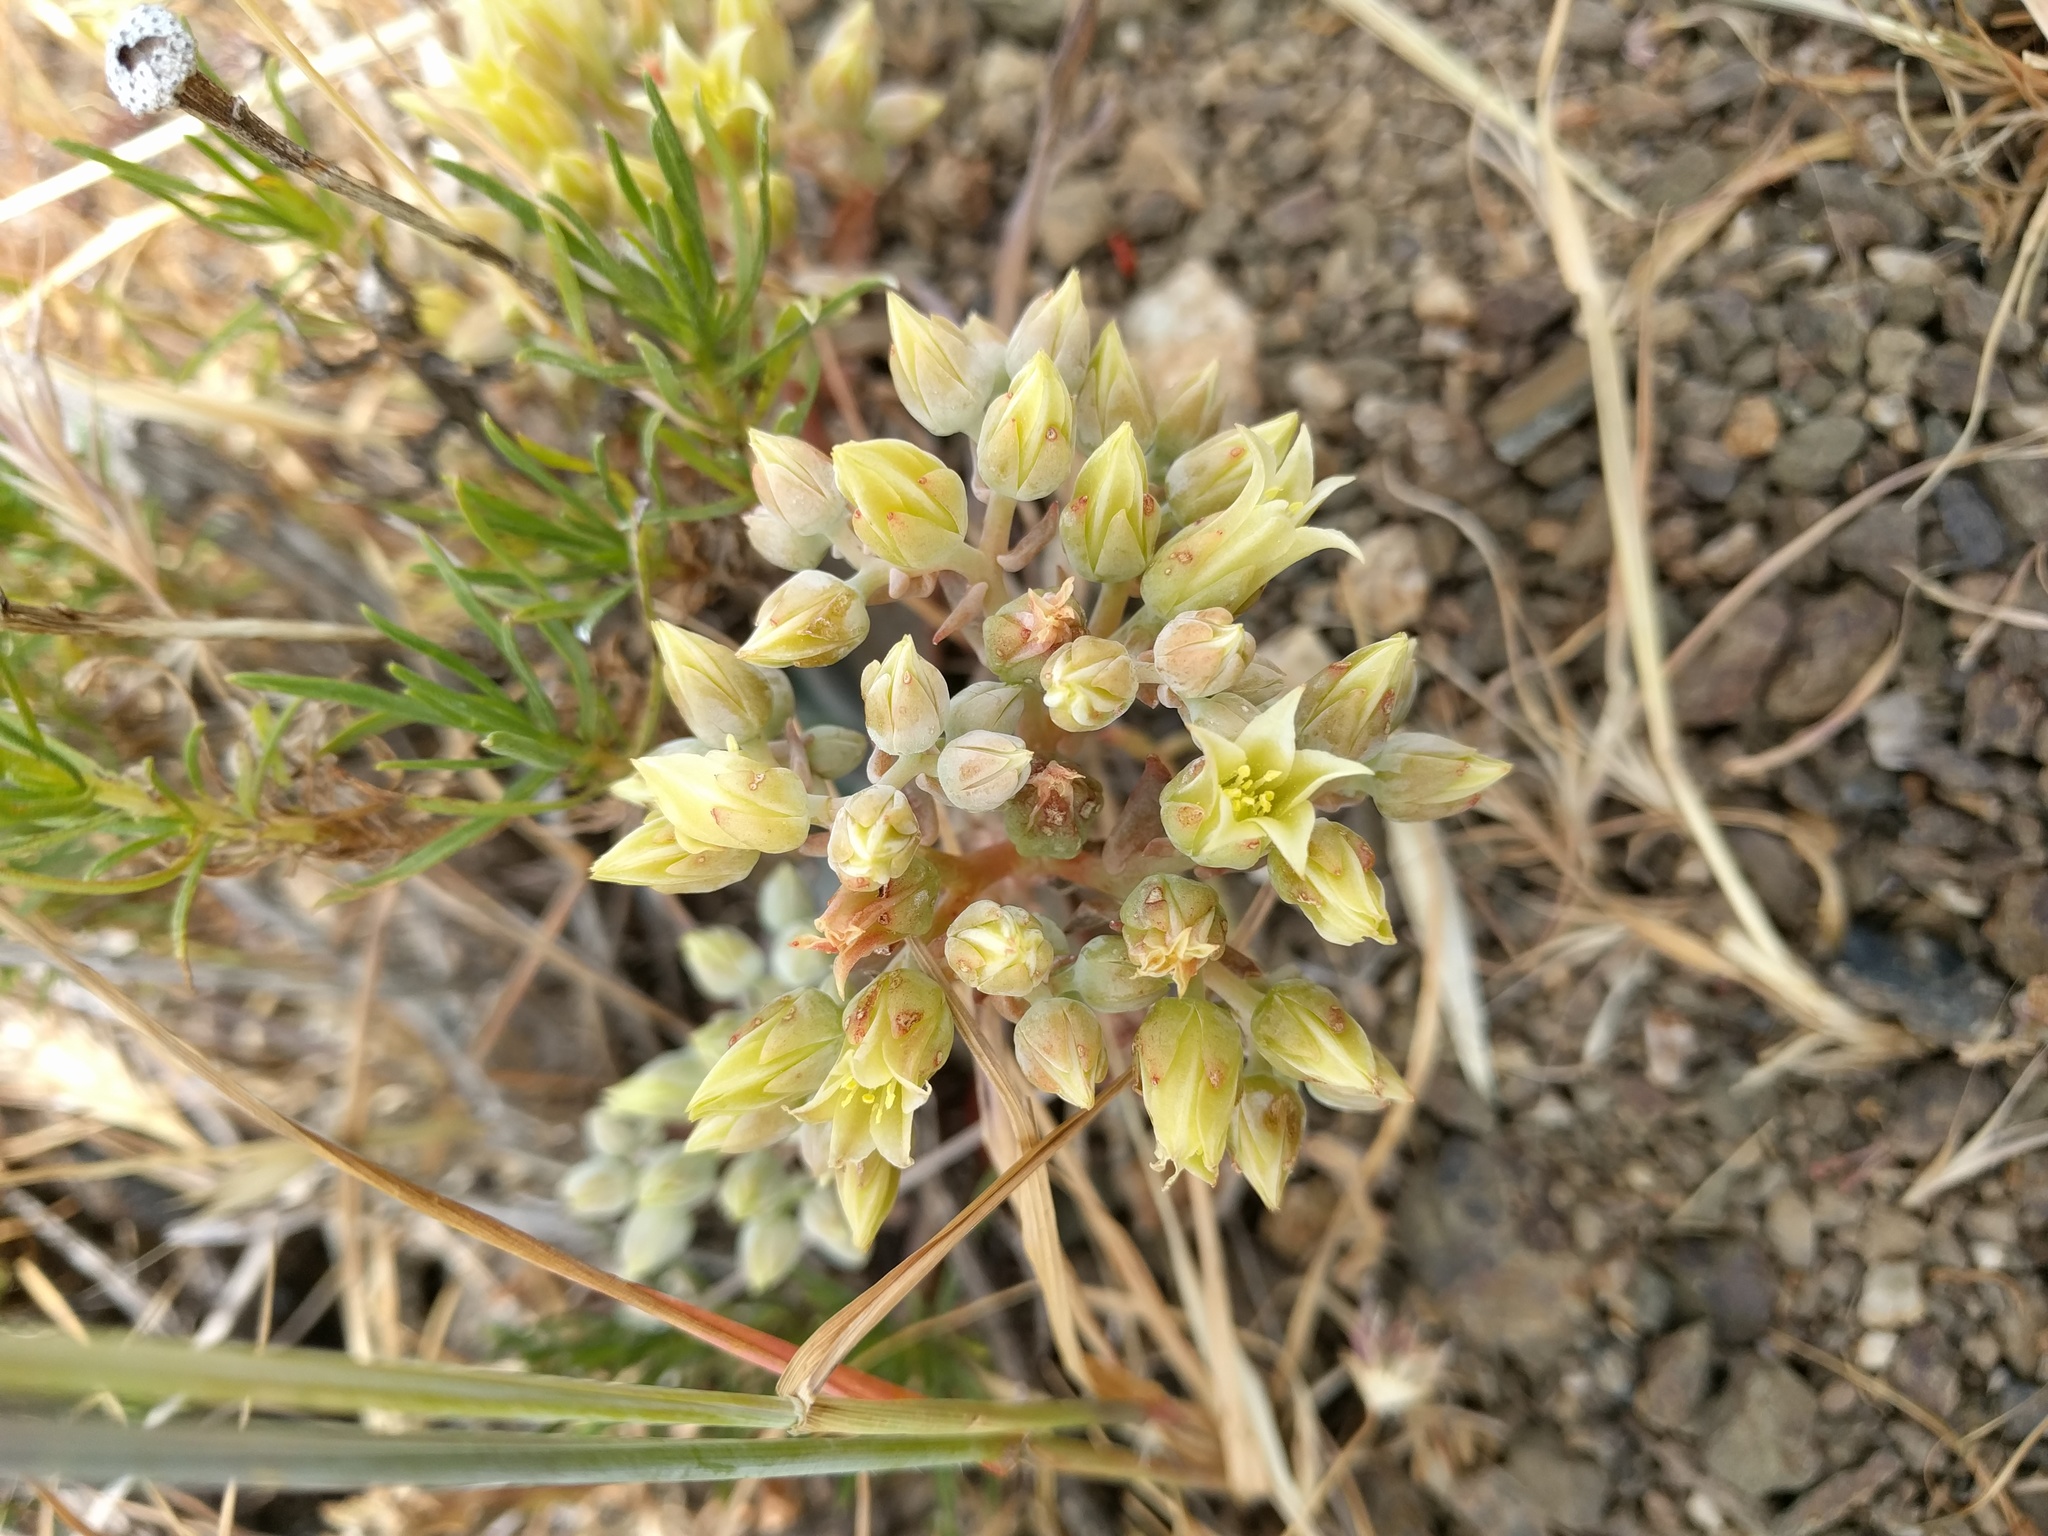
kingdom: Plantae
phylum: Tracheophyta
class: Magnoliopsida
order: Saxifragales
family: Crassulaceae
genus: Dudleya
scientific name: Dudleya cymosa
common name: Canyon dudleya
